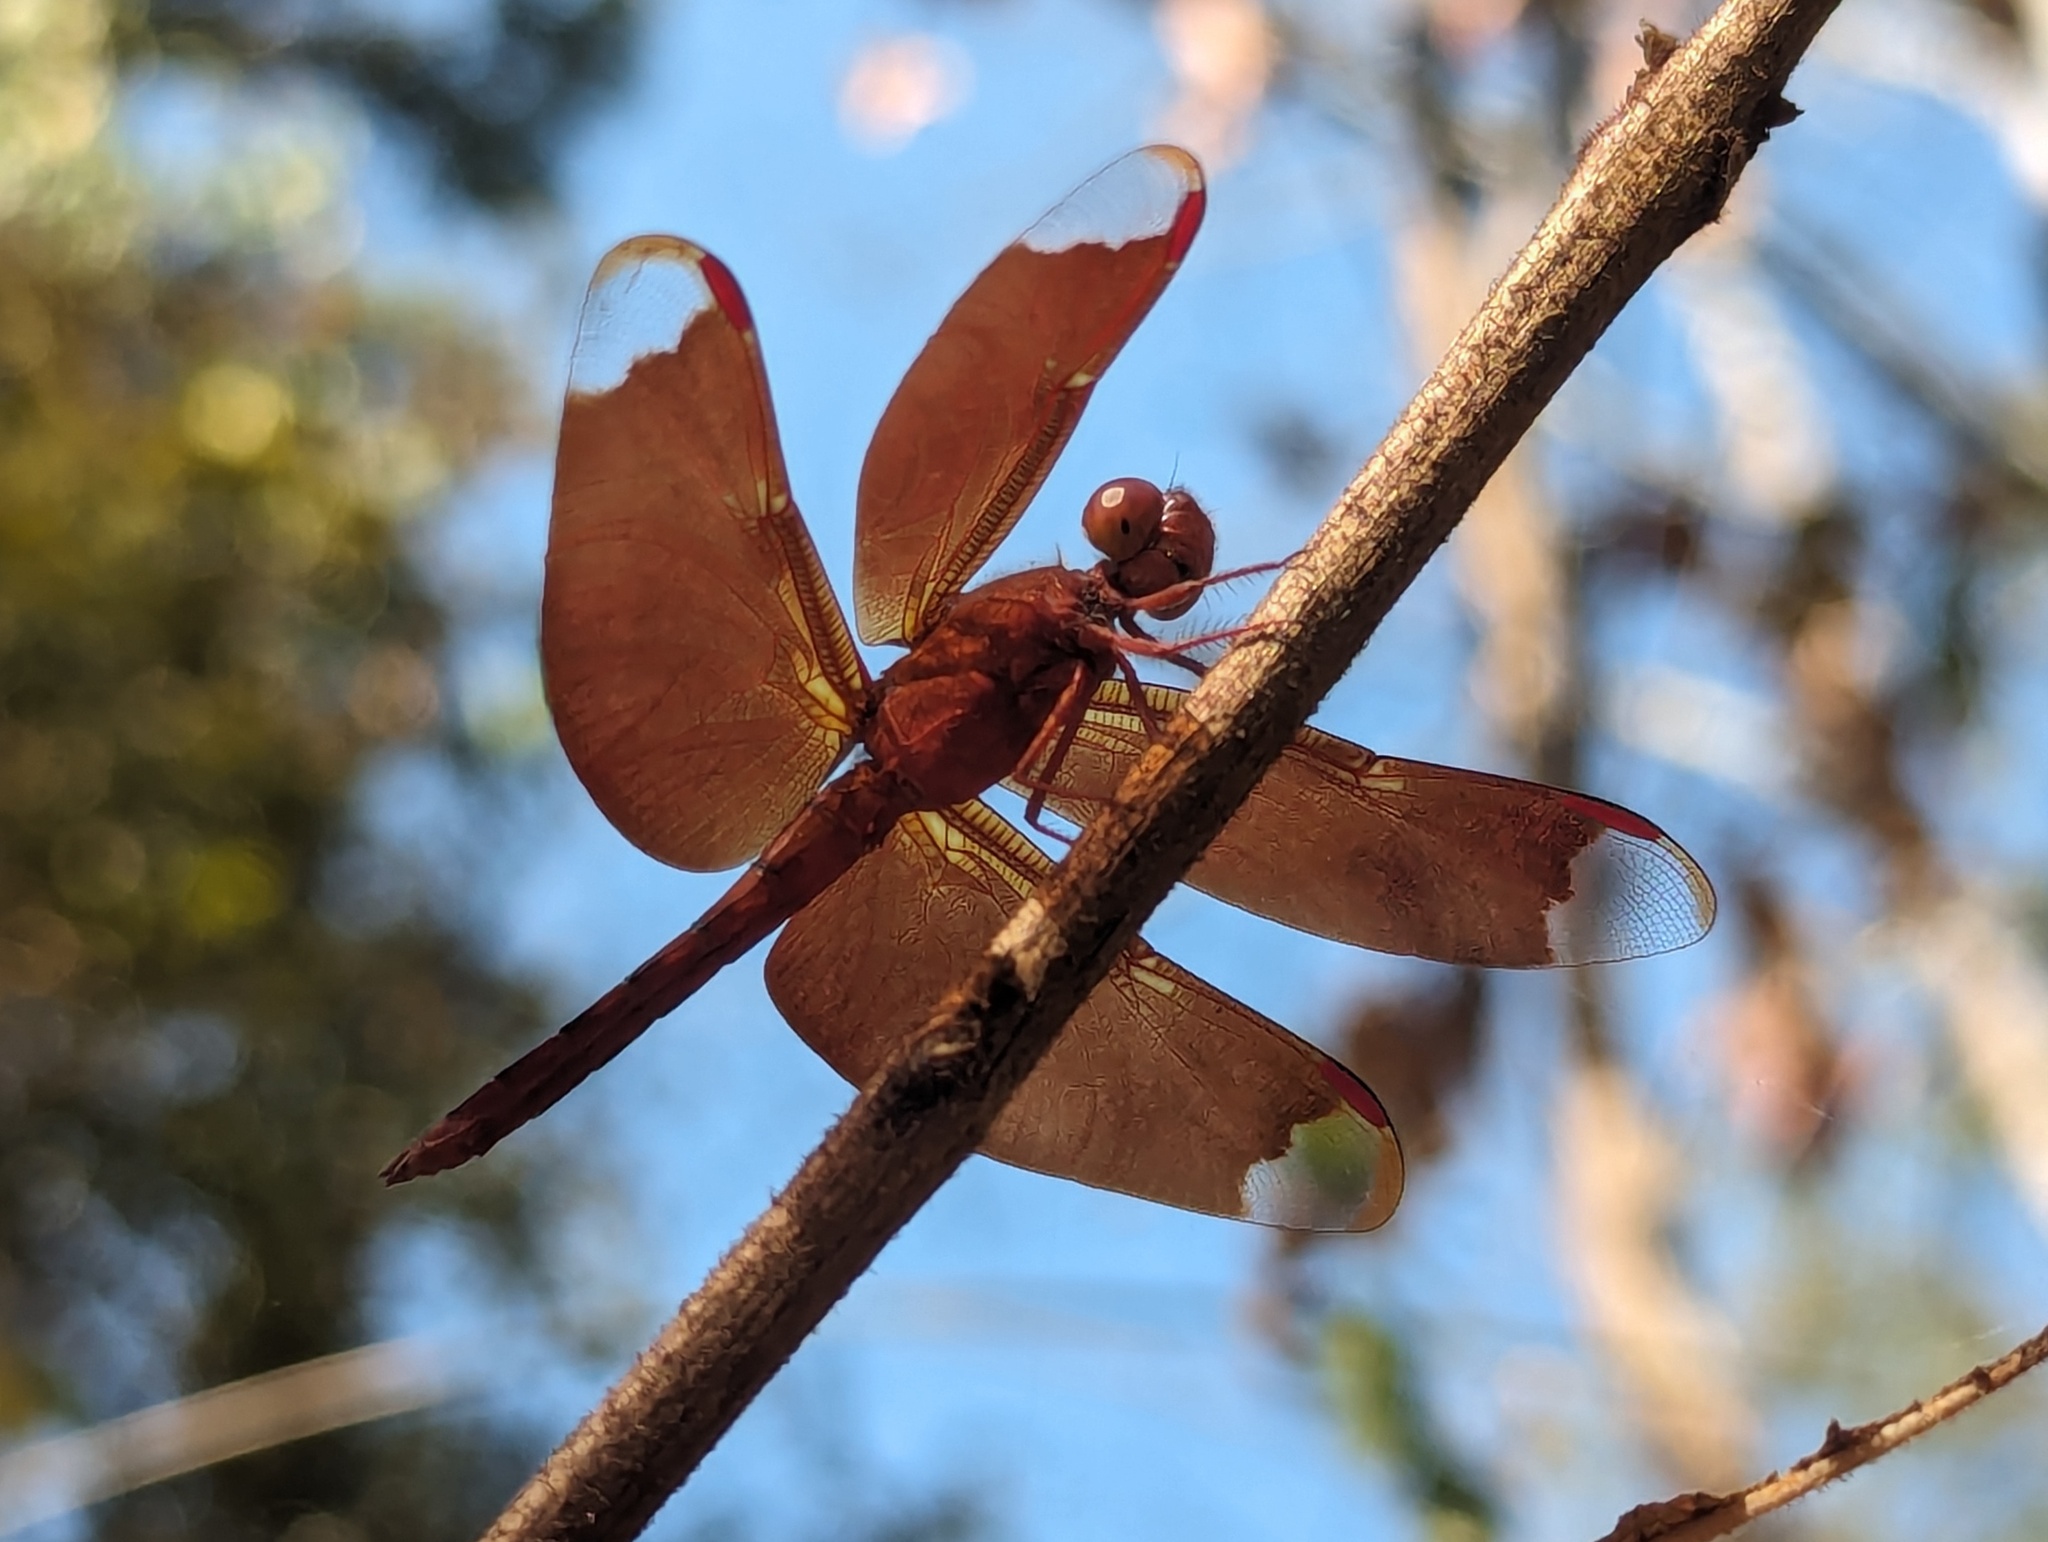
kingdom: Animalia
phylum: Arthropoda
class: Insecta
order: Odonata
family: Libellulidae
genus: Neurothemis
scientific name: Neurothemis fulvia
